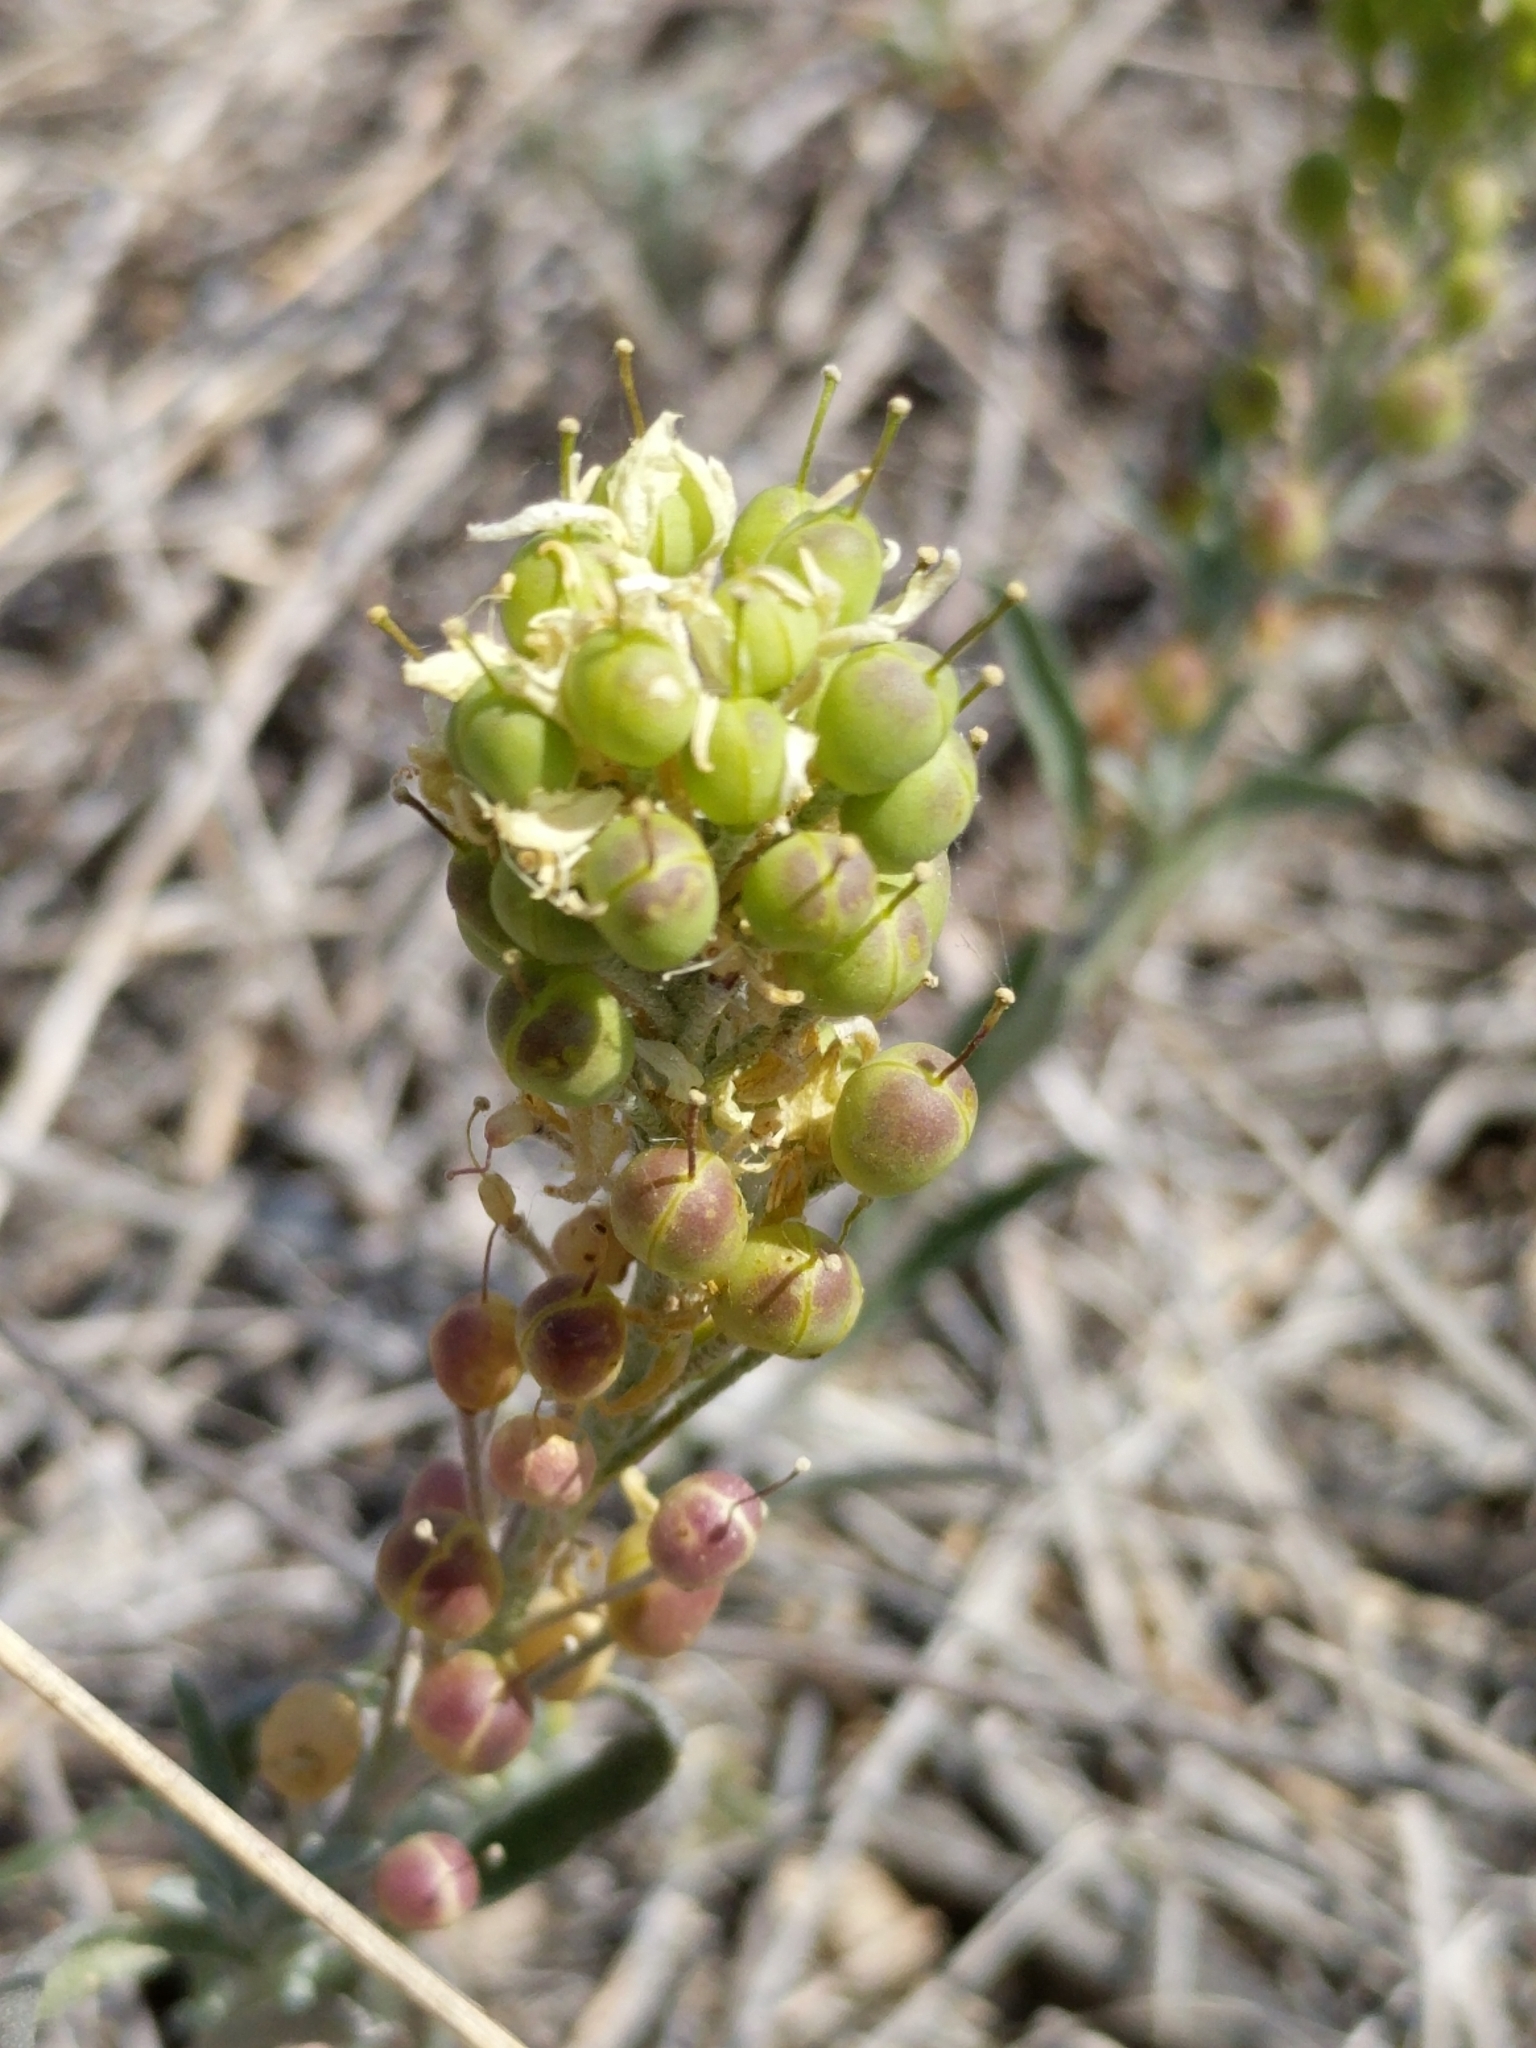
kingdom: Plantae
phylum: Tracheophyta
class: Magnoliopsida
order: Brassicales
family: Brassicaceae
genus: Physaria
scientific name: Physaria fendleri
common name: Fendler's bladderpod
